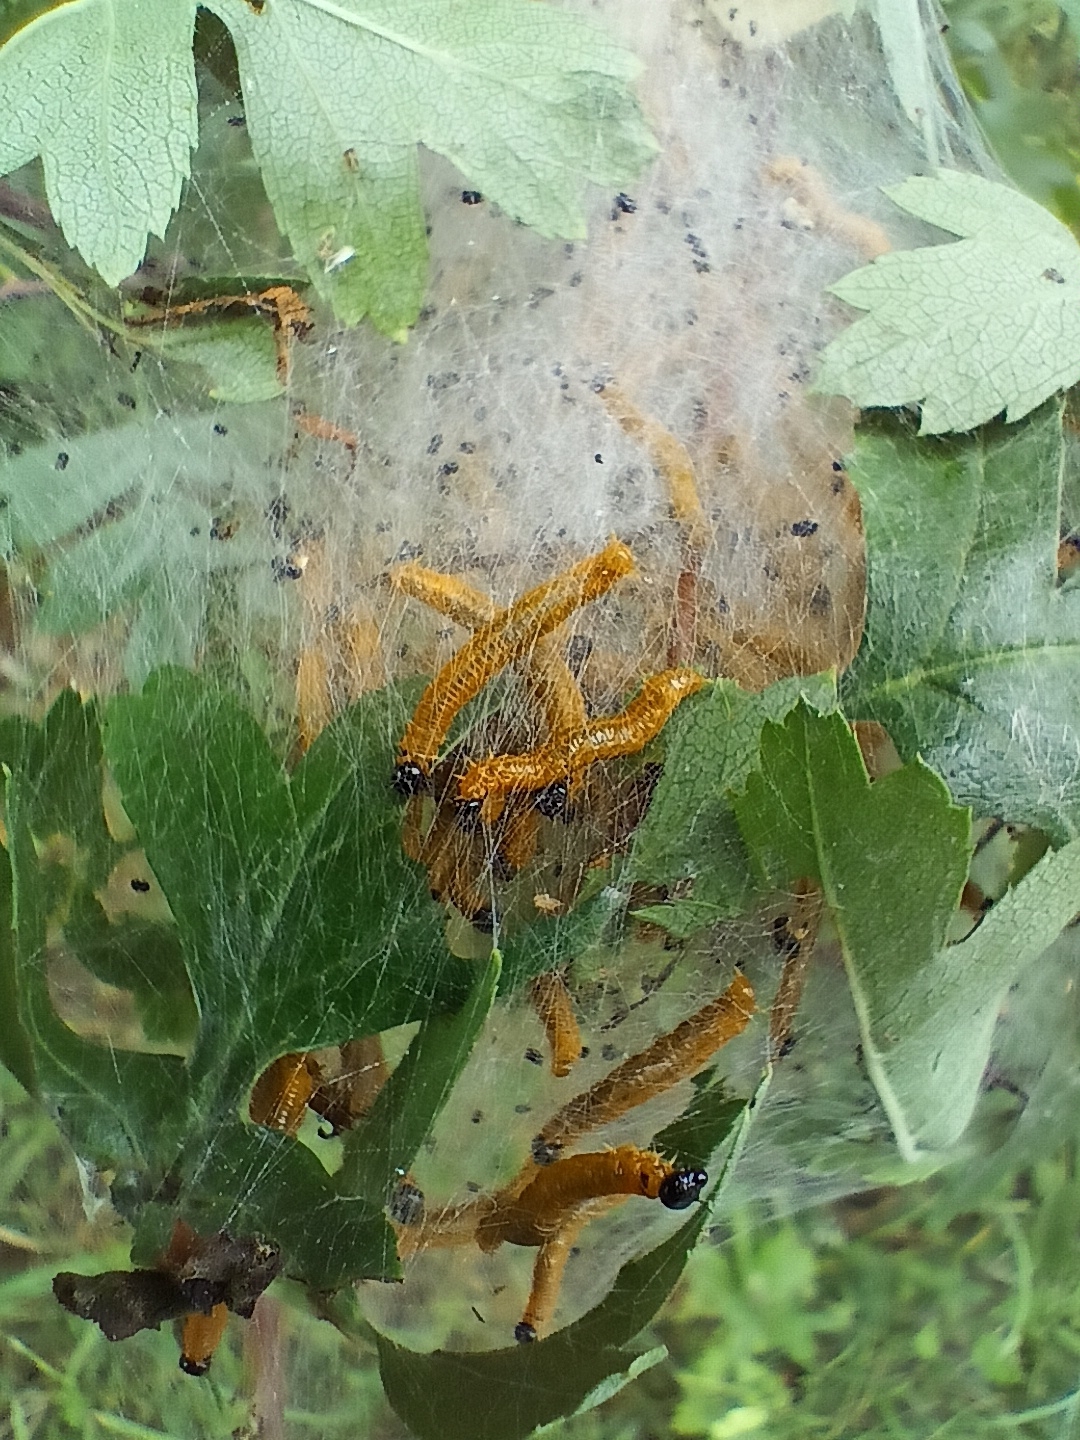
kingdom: Animalia
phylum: Arthropoda
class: Insecta
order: Hymenoptera
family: Pamphiliidae
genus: Neurotoma
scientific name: Neurotoma saltuum
